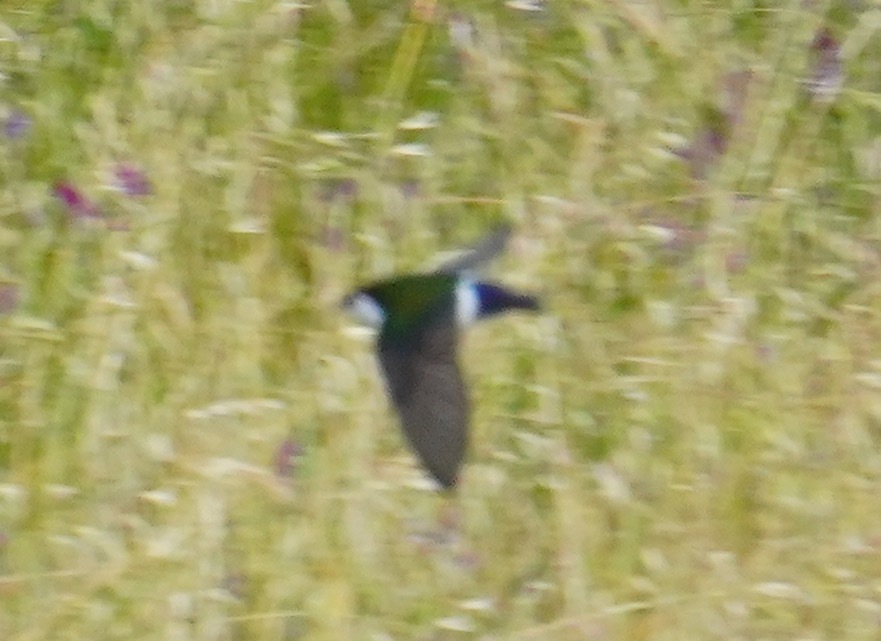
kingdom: Animalia
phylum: Chordata
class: Aves
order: Passeriformes
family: Hirundinidae
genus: Tachycineta
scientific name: Tachycineta thalassina
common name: Violet-green swallow
